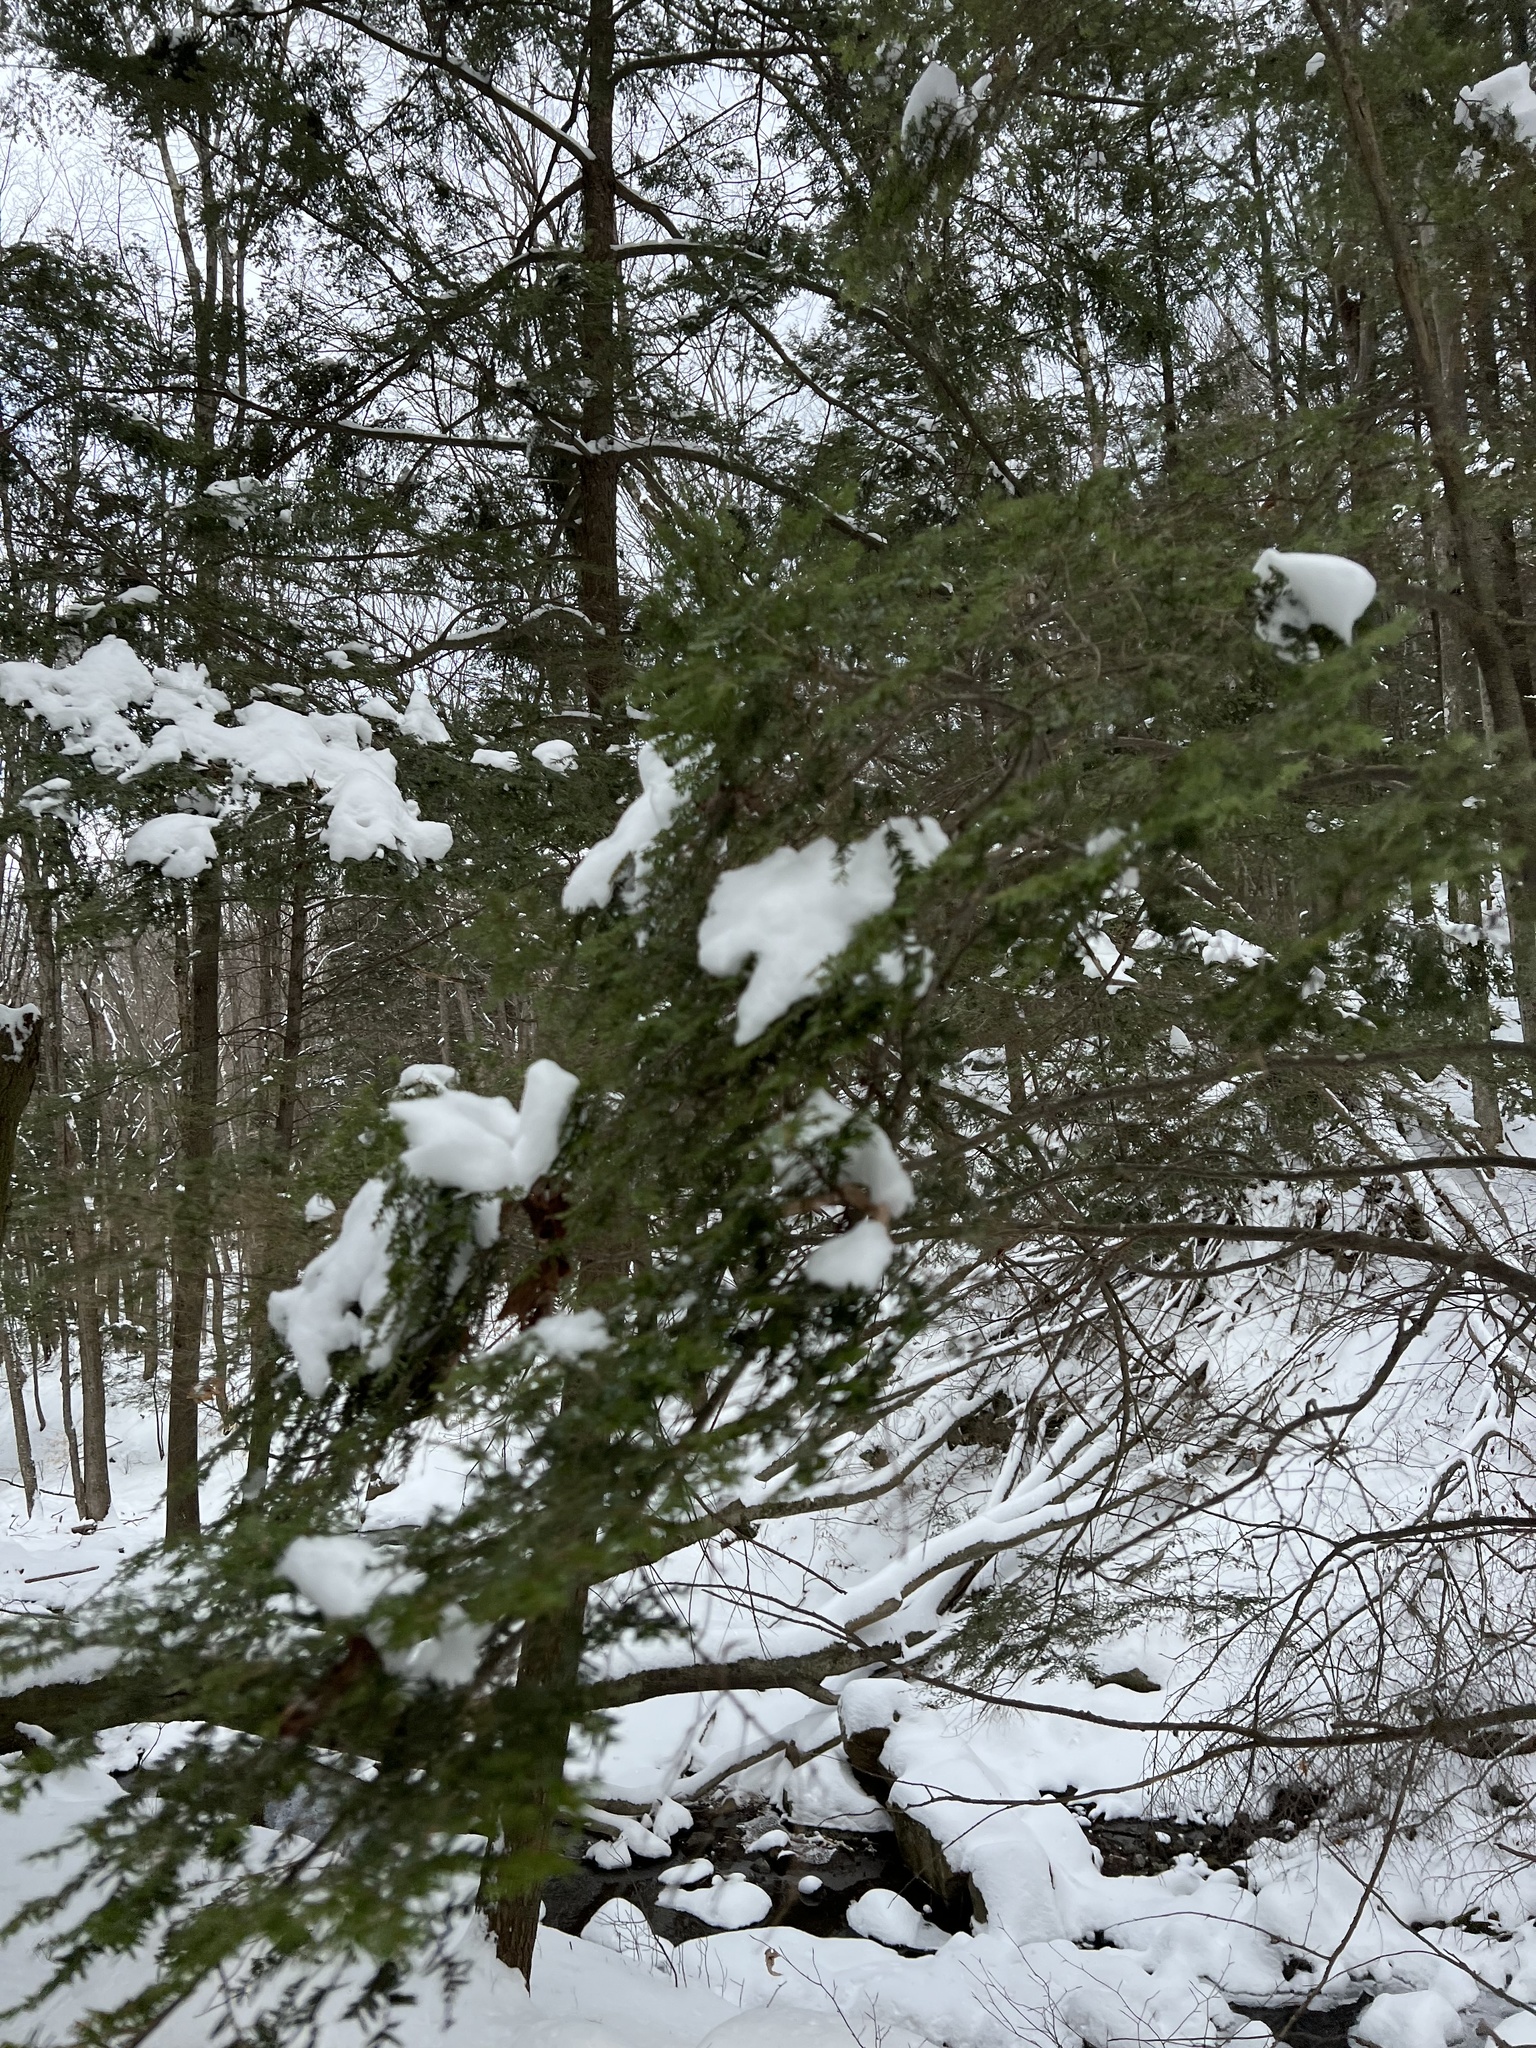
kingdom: Plantae
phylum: Tracheophyta
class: Pinopsida
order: Pinales
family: Pinaceae
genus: Tsuga
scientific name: Tsuga canadensis
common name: Eastern hemlock
